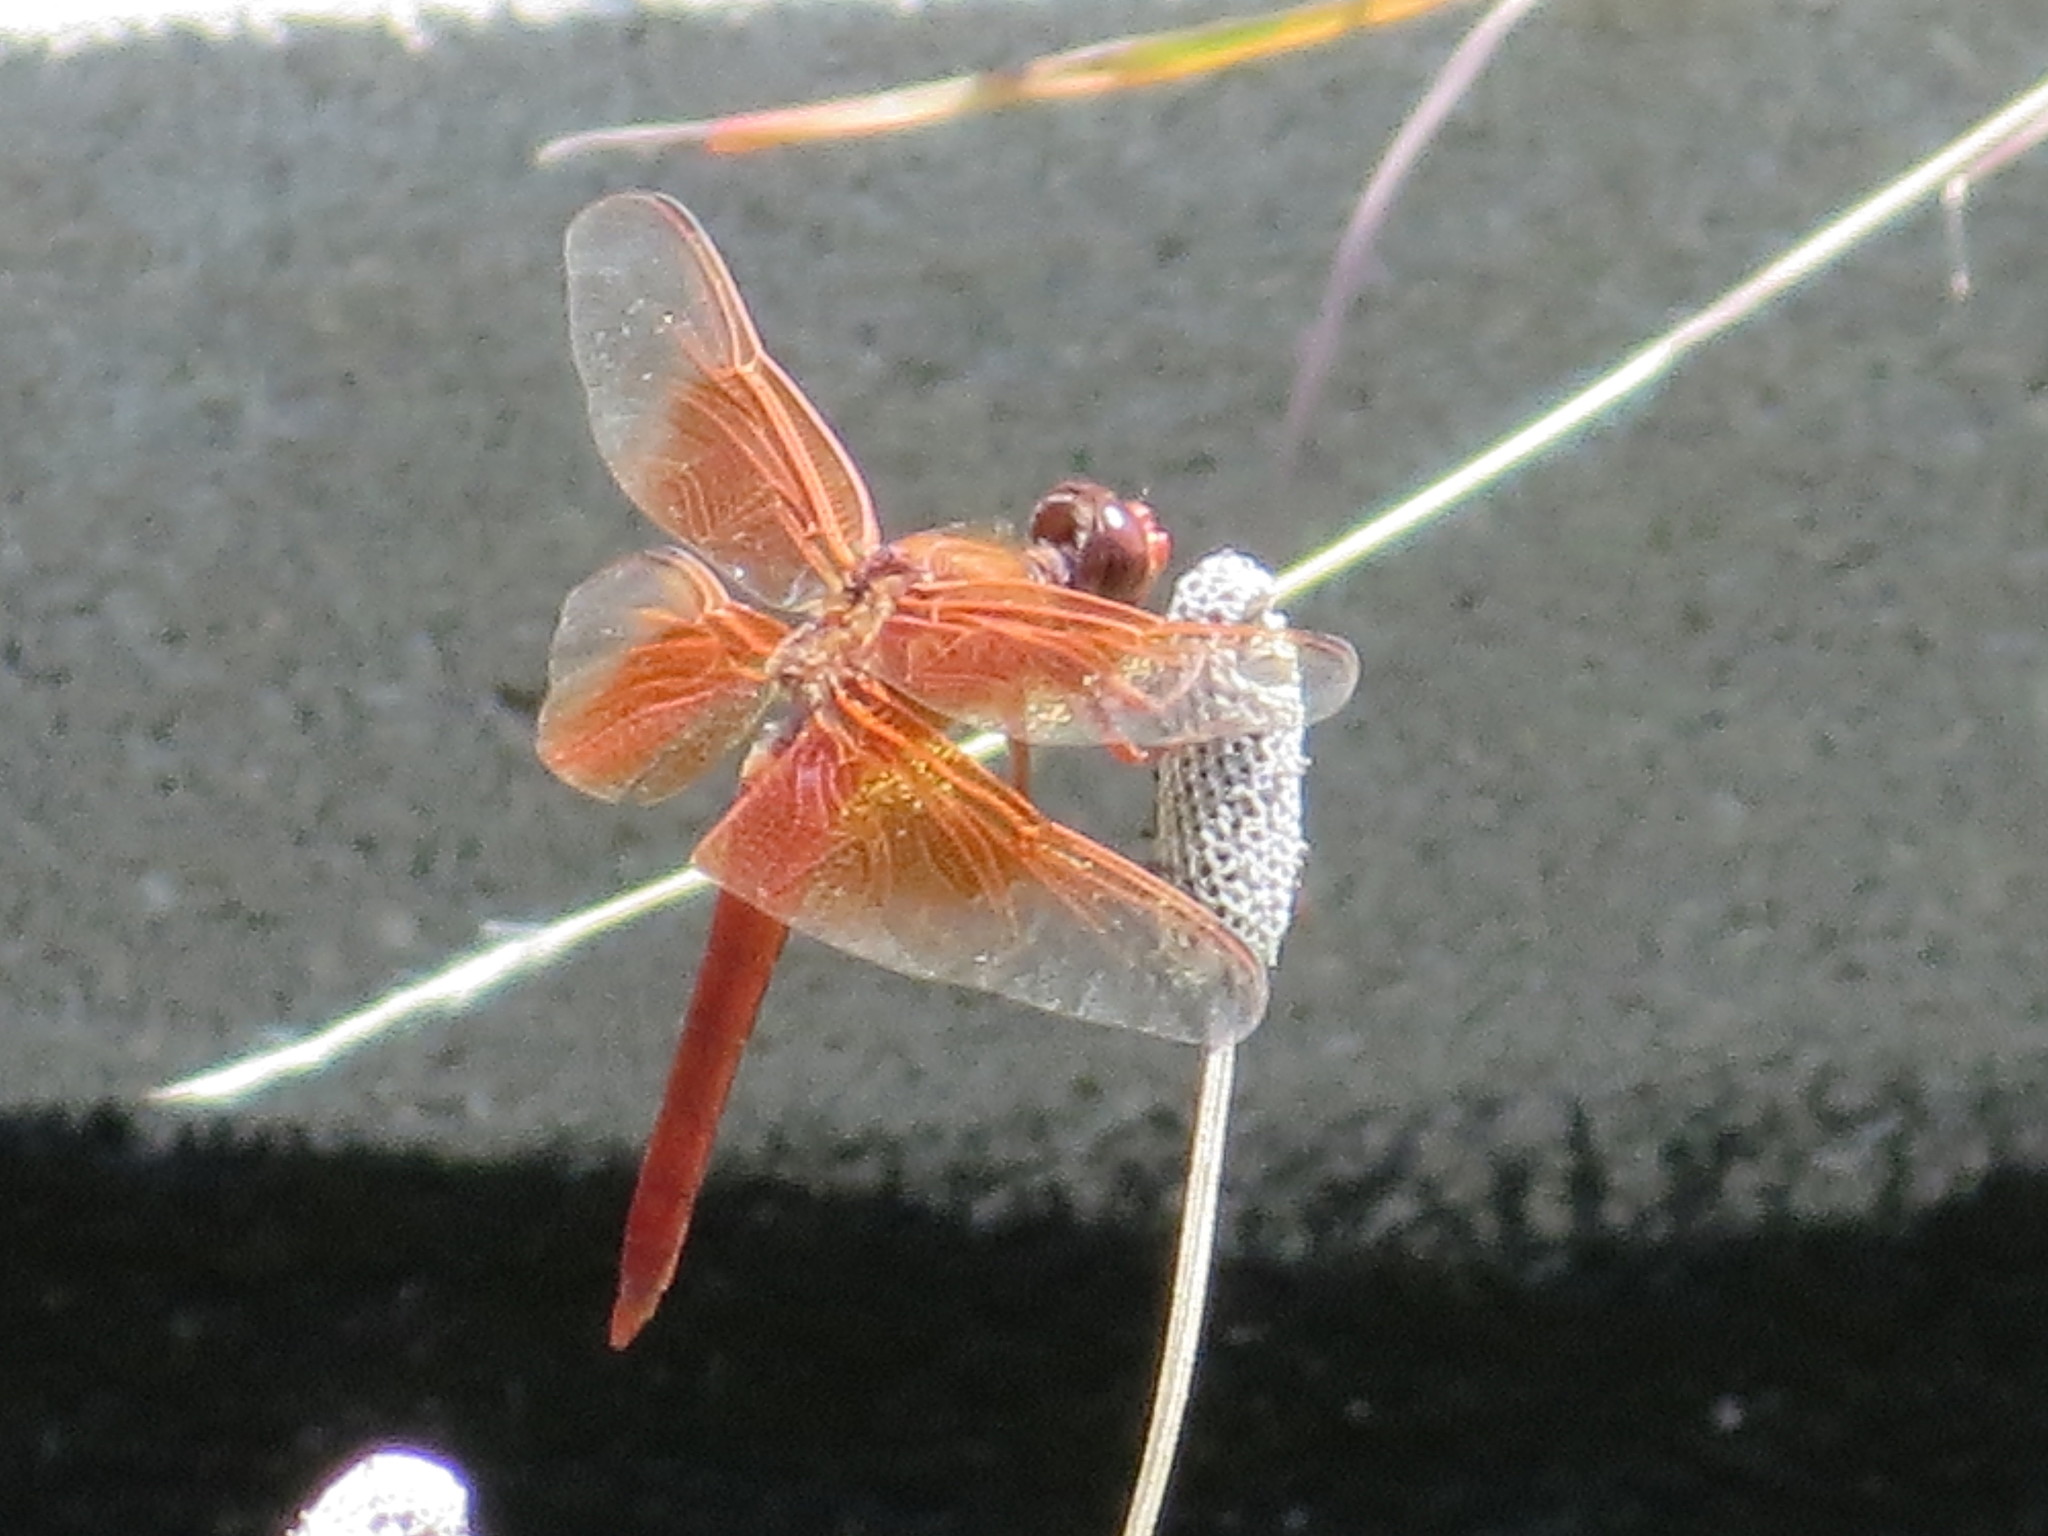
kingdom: Animalia
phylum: Arthropoda
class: Insecta
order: Odonata
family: Libellulidae
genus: Libellula
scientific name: Libellula saturata
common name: Flame skimmer
